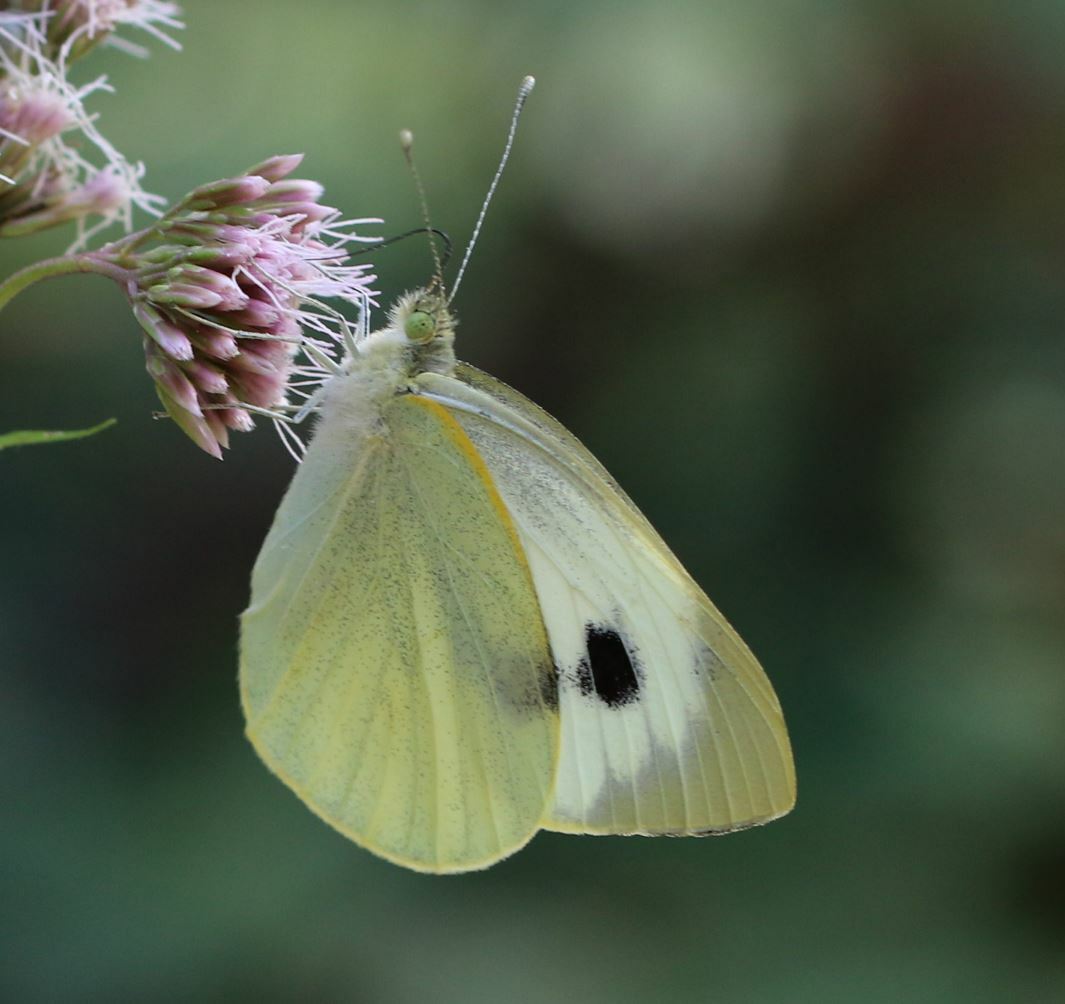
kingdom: Animalia
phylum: Arthropoda
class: Insecta
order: Lepidoptera
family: Pieridae
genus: Pieris
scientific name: Pieris brassicae
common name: Large white
